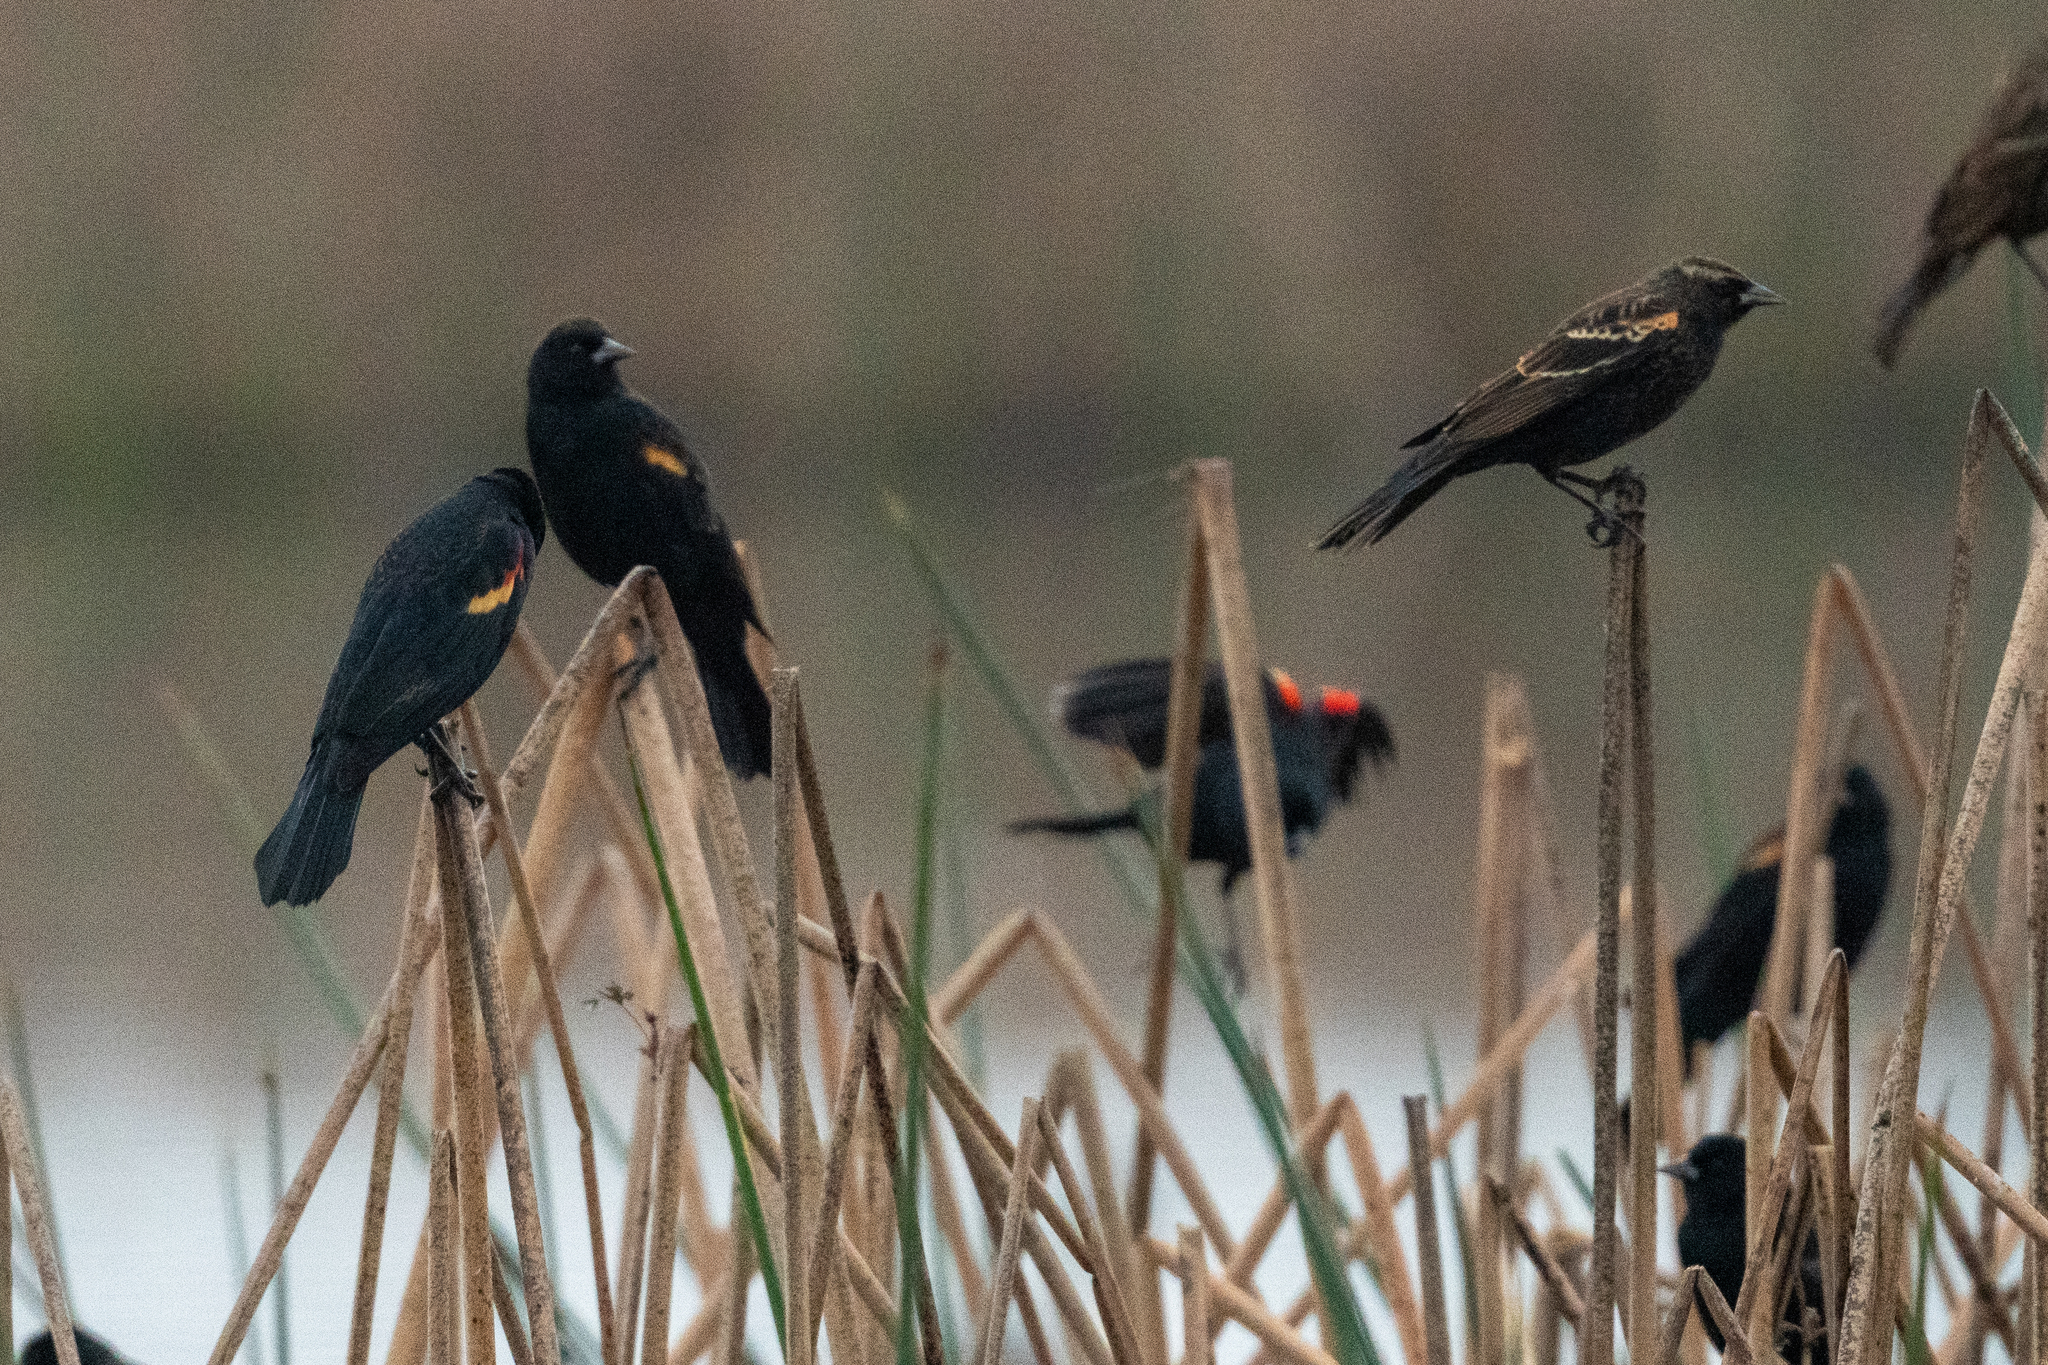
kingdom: Animalia
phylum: Chordata
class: Aves
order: Passeriformes
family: Icteridae
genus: Agelaius
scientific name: Agelaius phoeniceus
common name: Red-winged blackbird
